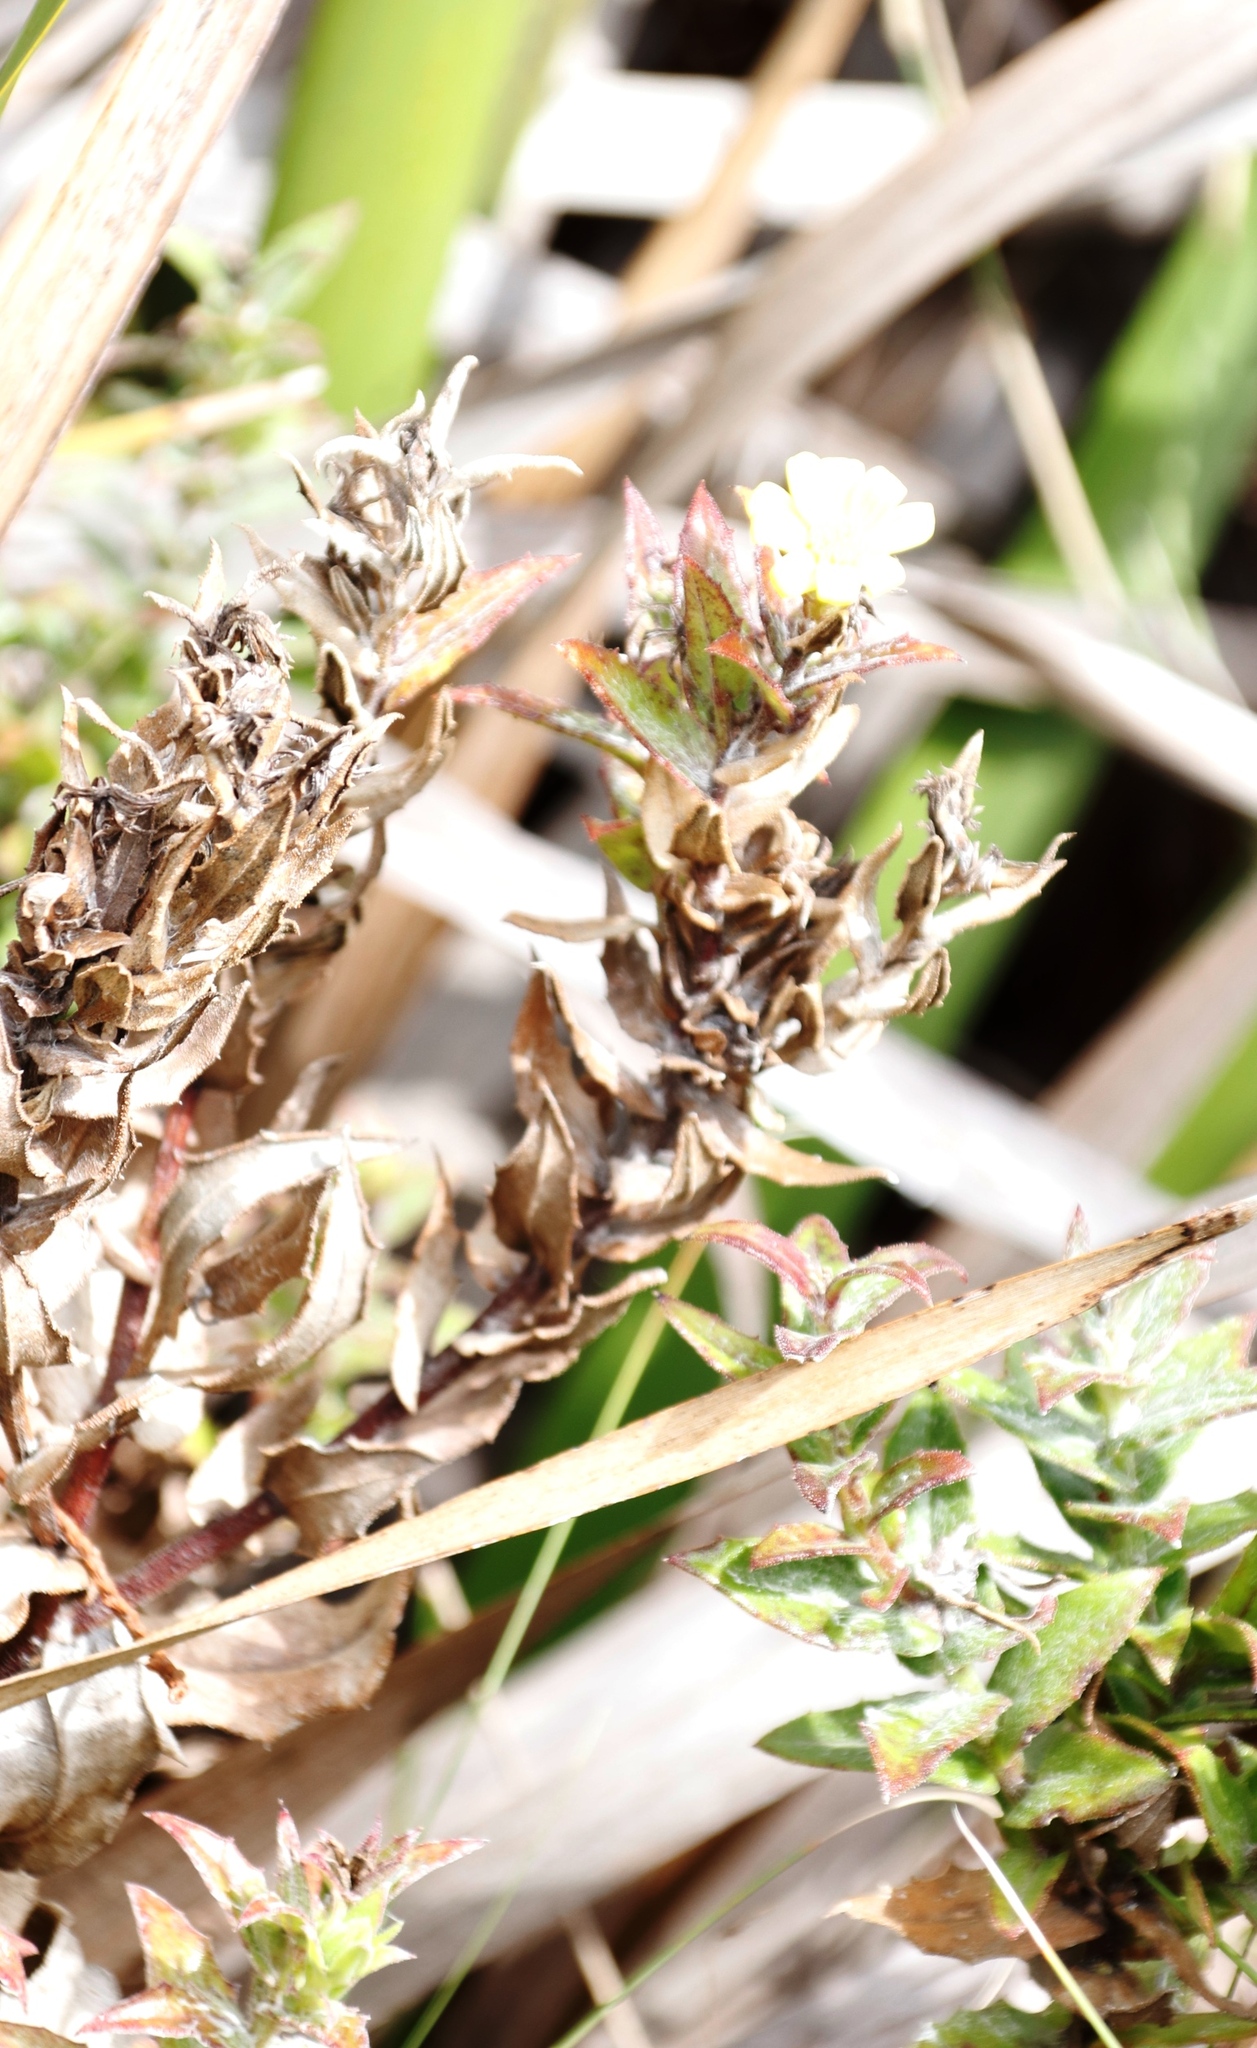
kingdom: Plantae
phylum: Tracheophyta
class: Magnoliopsida
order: Asterales
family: Asteraceae
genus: Osteospermum
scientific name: Osteospermum ilicifolium
